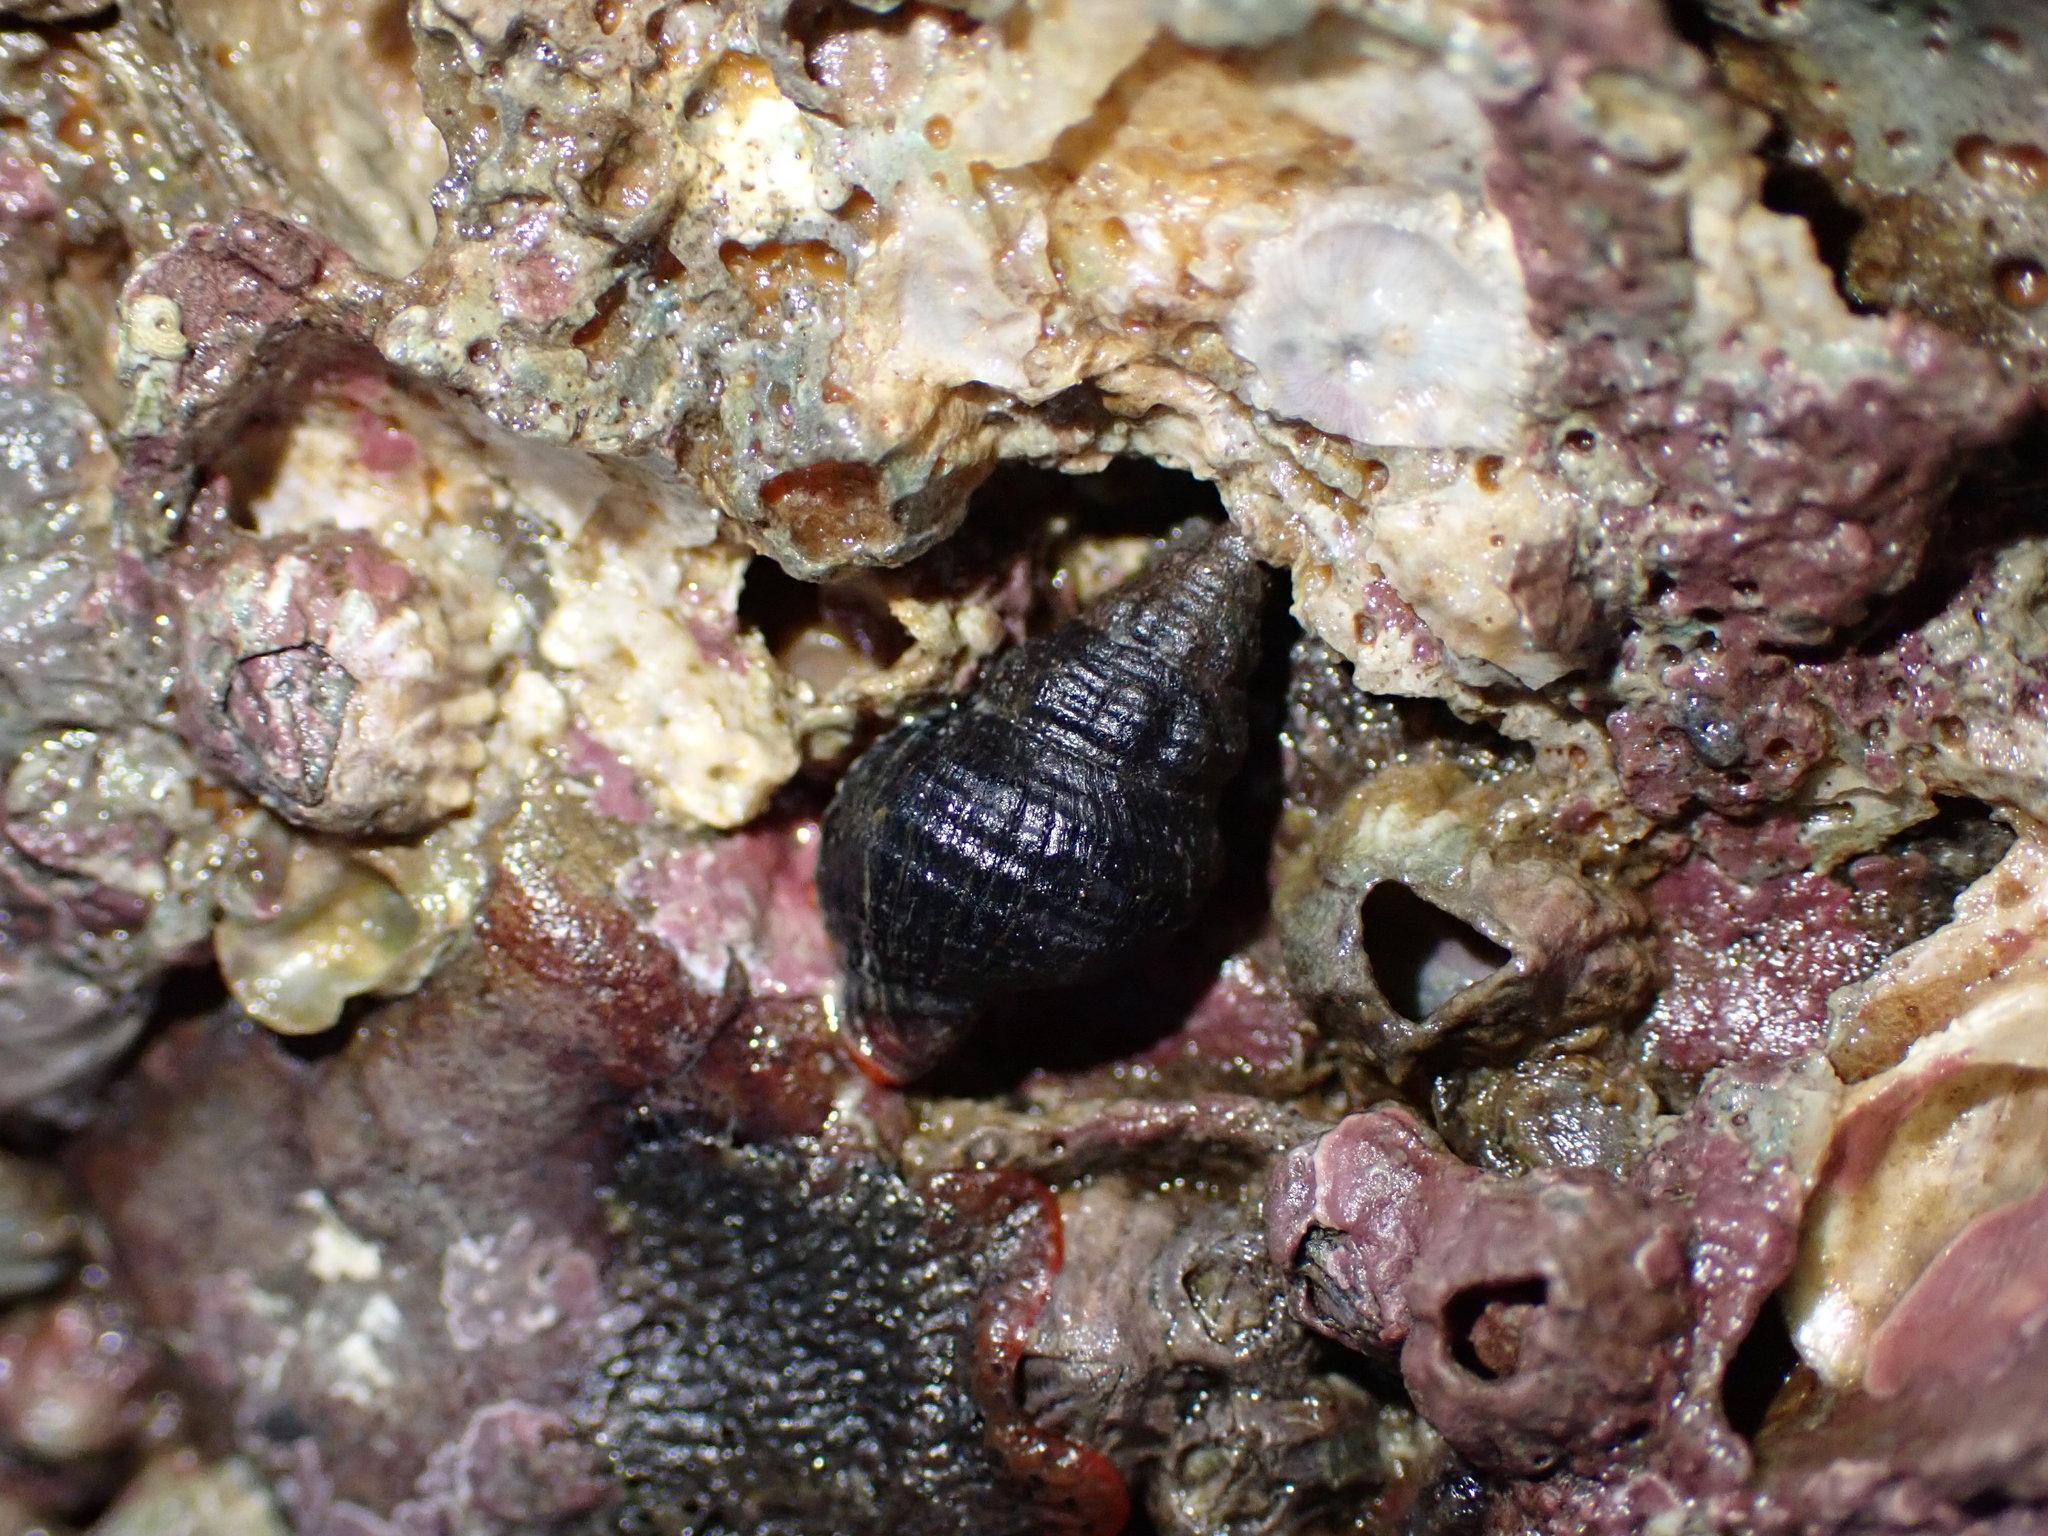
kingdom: Animalia
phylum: Mollusca
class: Gastropoda
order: Neogastropoda
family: Fasciolariidae
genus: Taron
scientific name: Taron dubius
